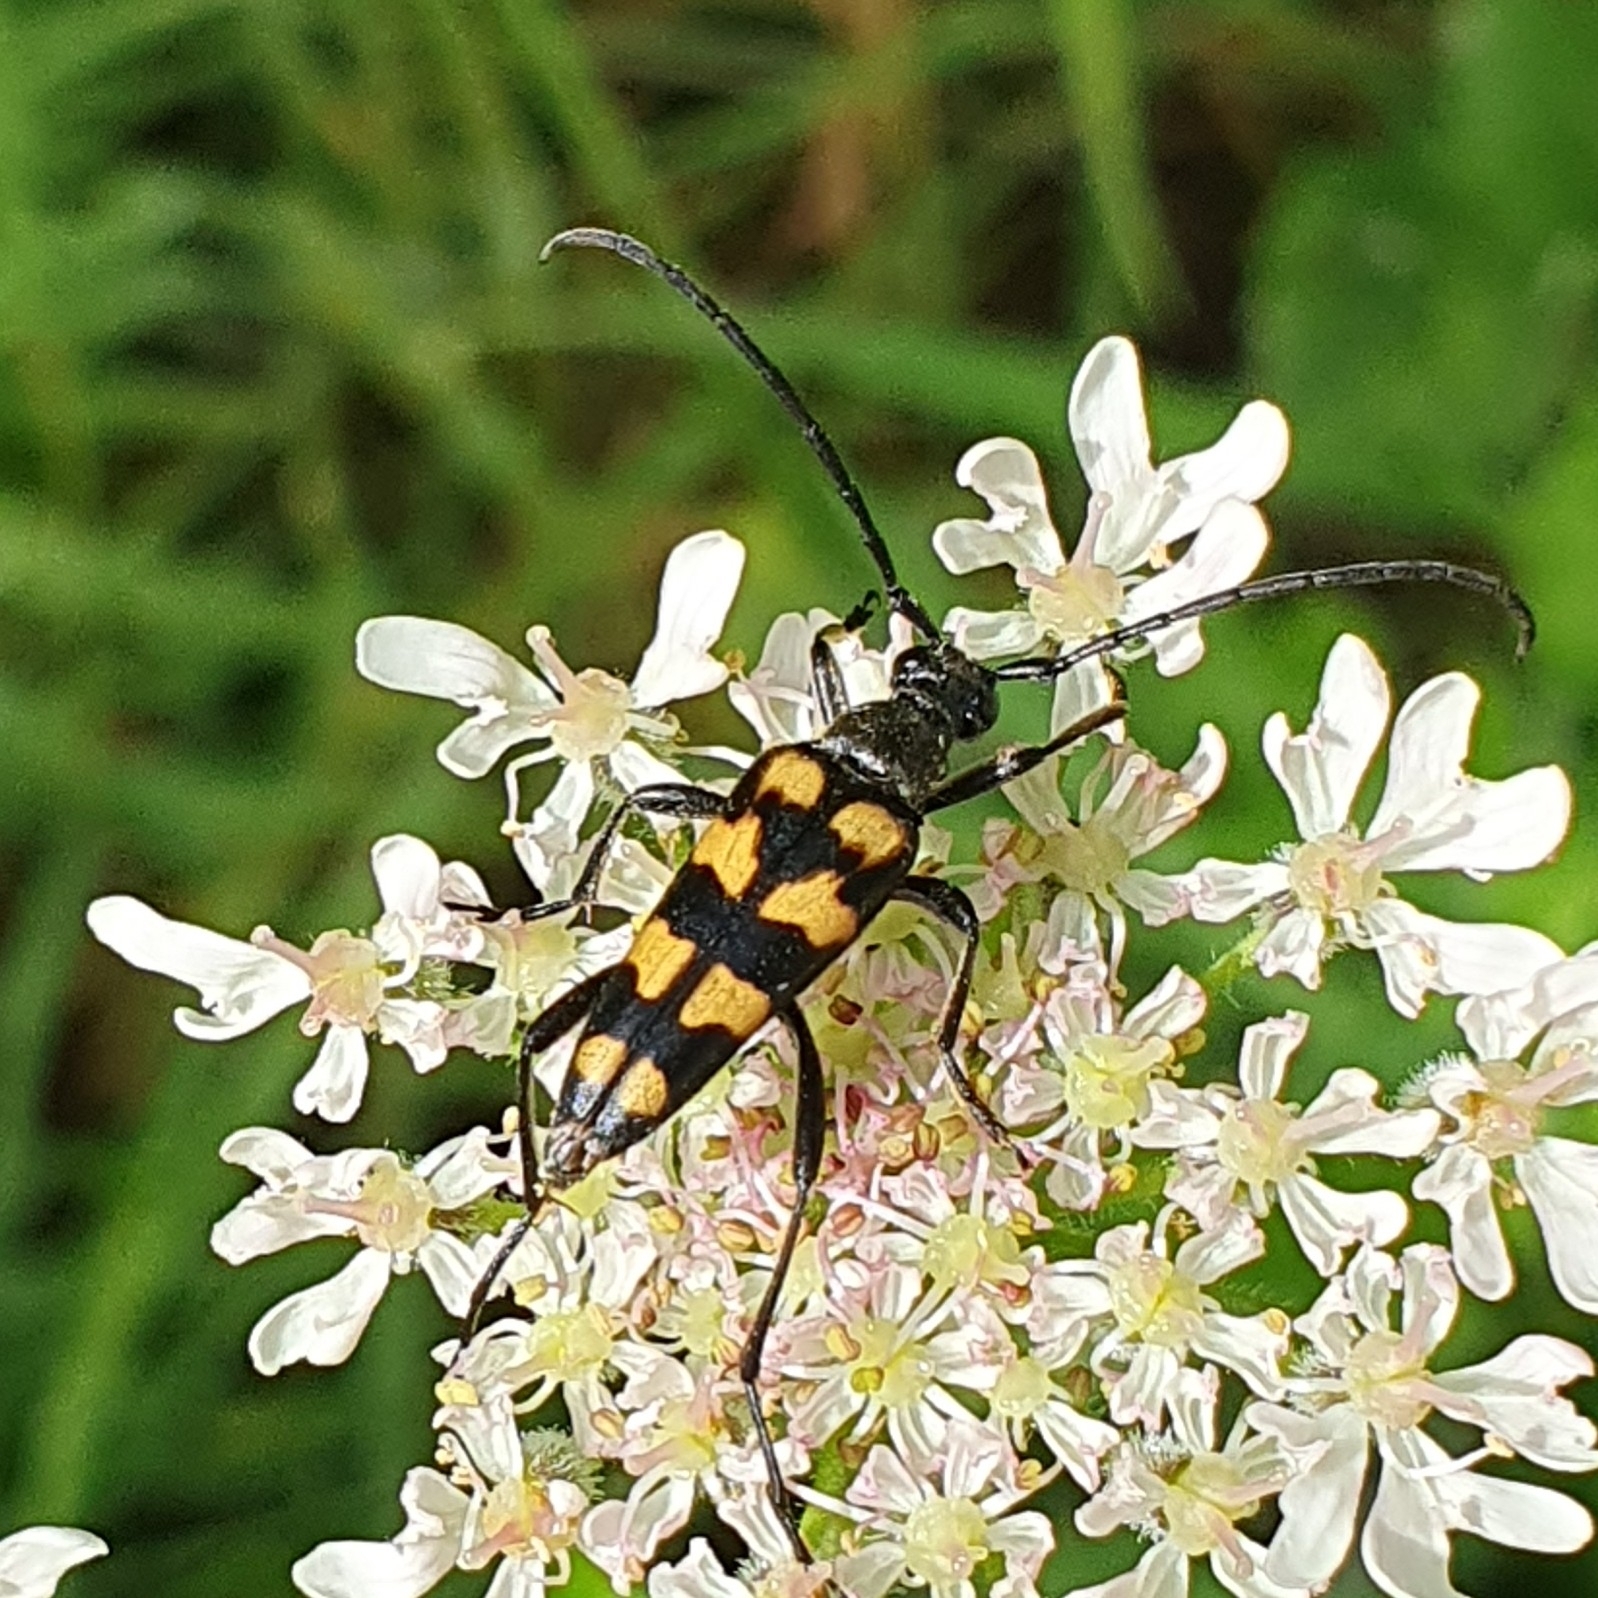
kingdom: Animalia
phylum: Arthropoda
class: Insecta
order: Coleoptera
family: Cerambycidae
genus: Leptura
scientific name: Leptura quadrifasciata
